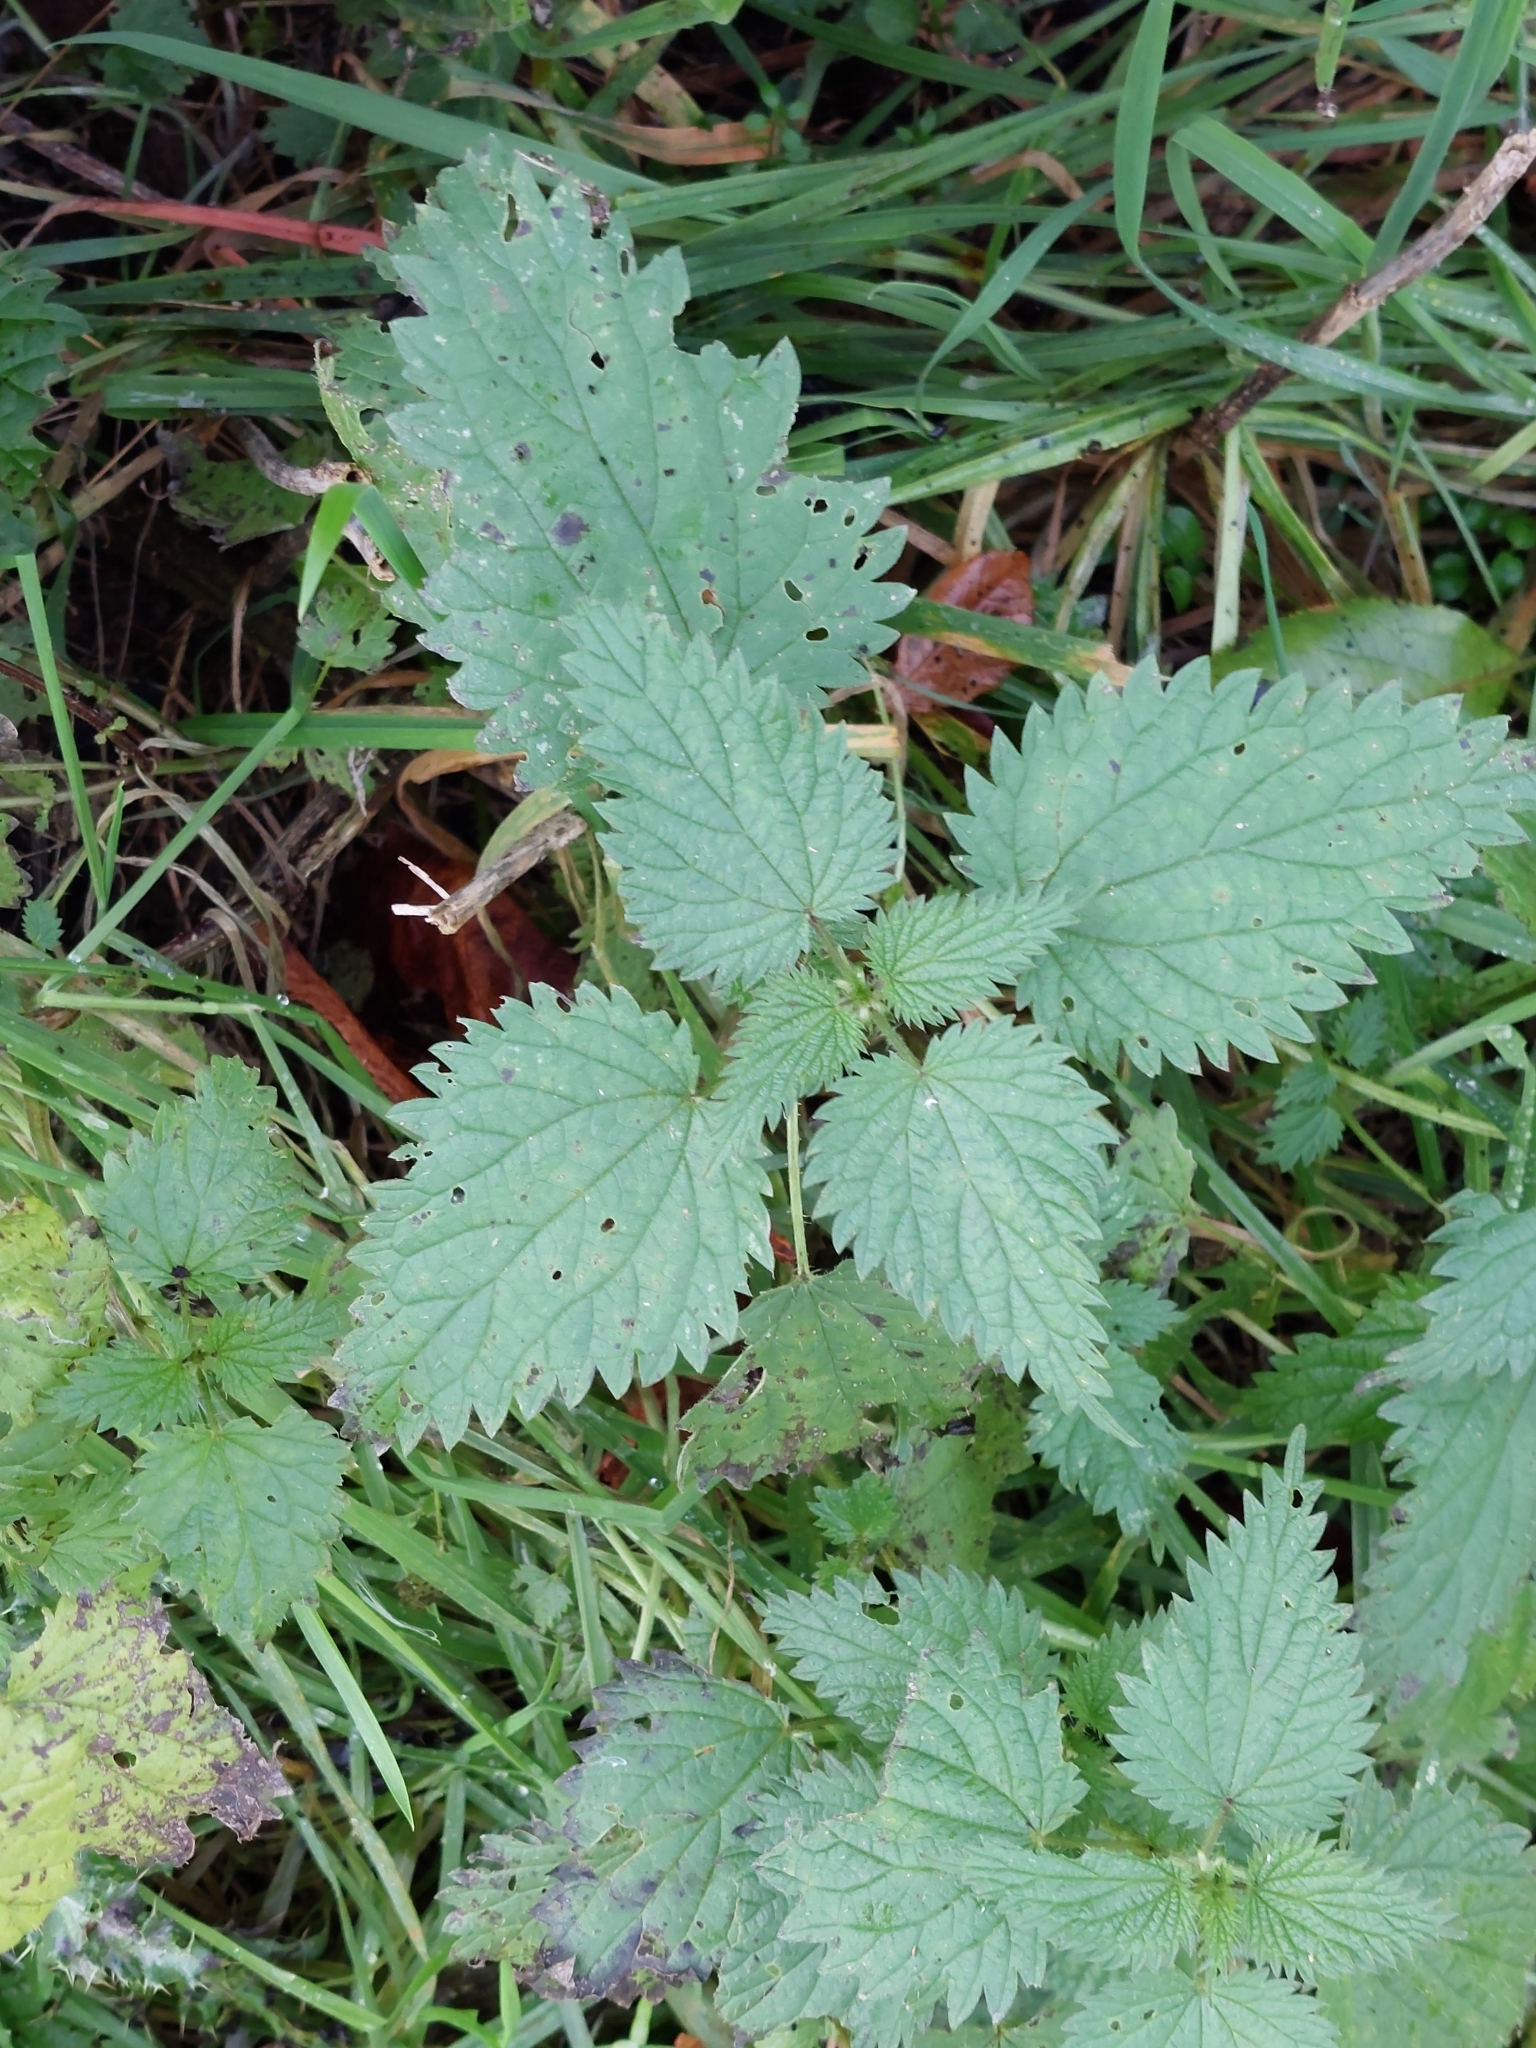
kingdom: Plantae
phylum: Tracheophyta
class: Magnoliopsida
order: Rosales
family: Urticaceae
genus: Urtica
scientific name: Urtica dioica
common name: Common nettle
